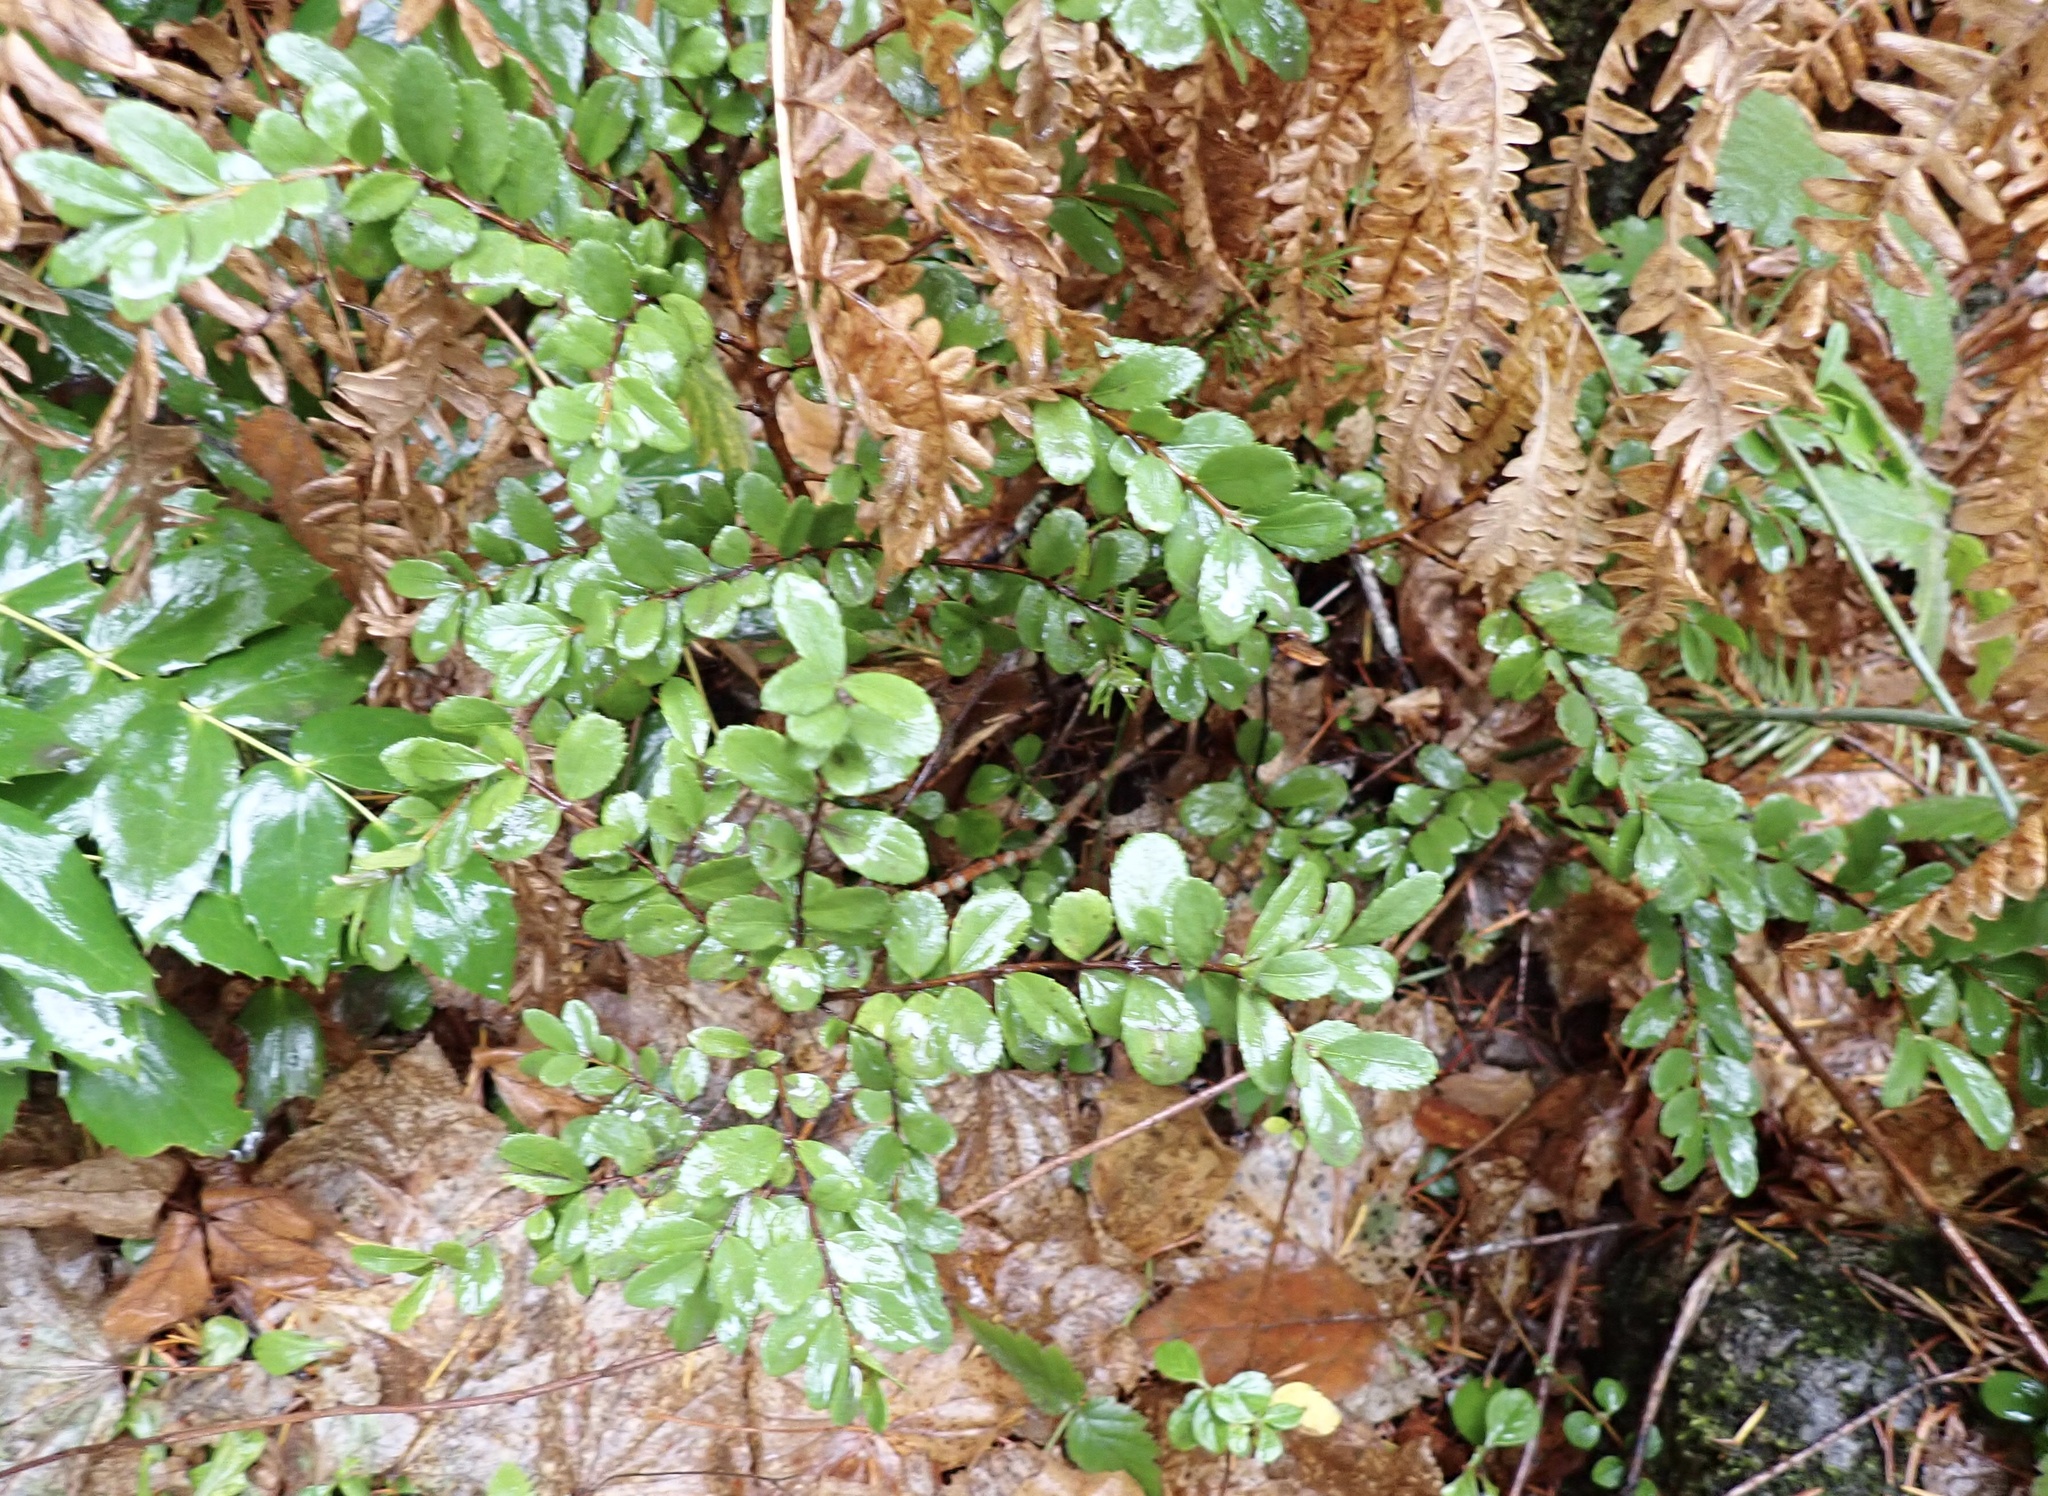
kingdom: Plantae
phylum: Tracheophyta
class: Magnoliopsida
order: Celastrales
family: Celastraceae
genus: Paxistima
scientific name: Paxistima myrsinites
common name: Mountain-lover
